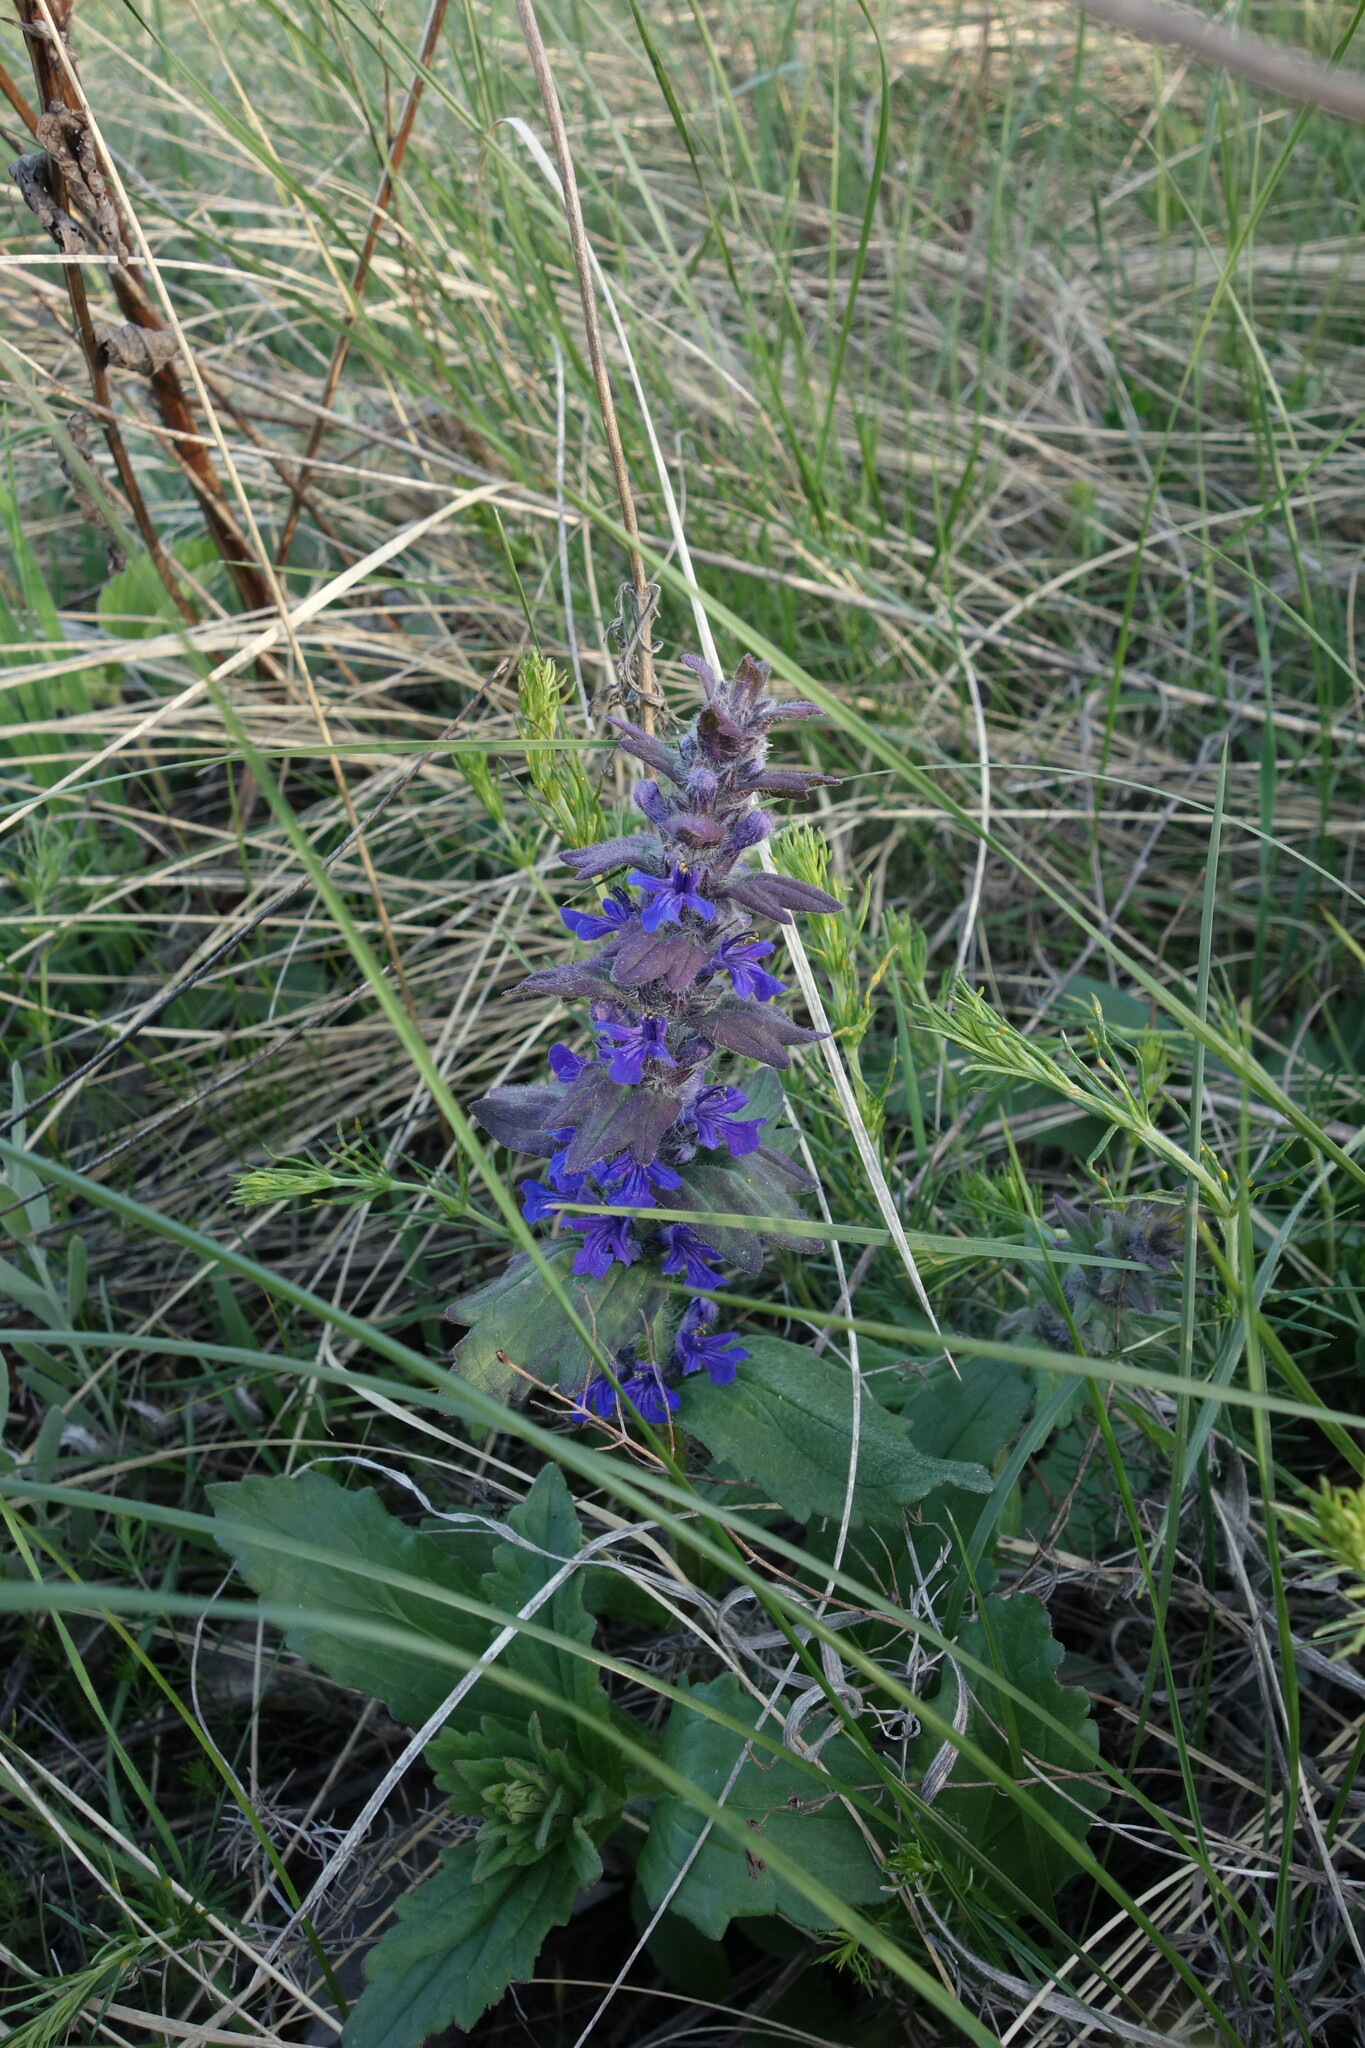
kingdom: Plantae
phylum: Tracheophyta
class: Magnoliopsida
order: Lamiales
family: Lamiaceae
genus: Ajuga
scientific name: Ajuga genevensis
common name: Blue bugle
